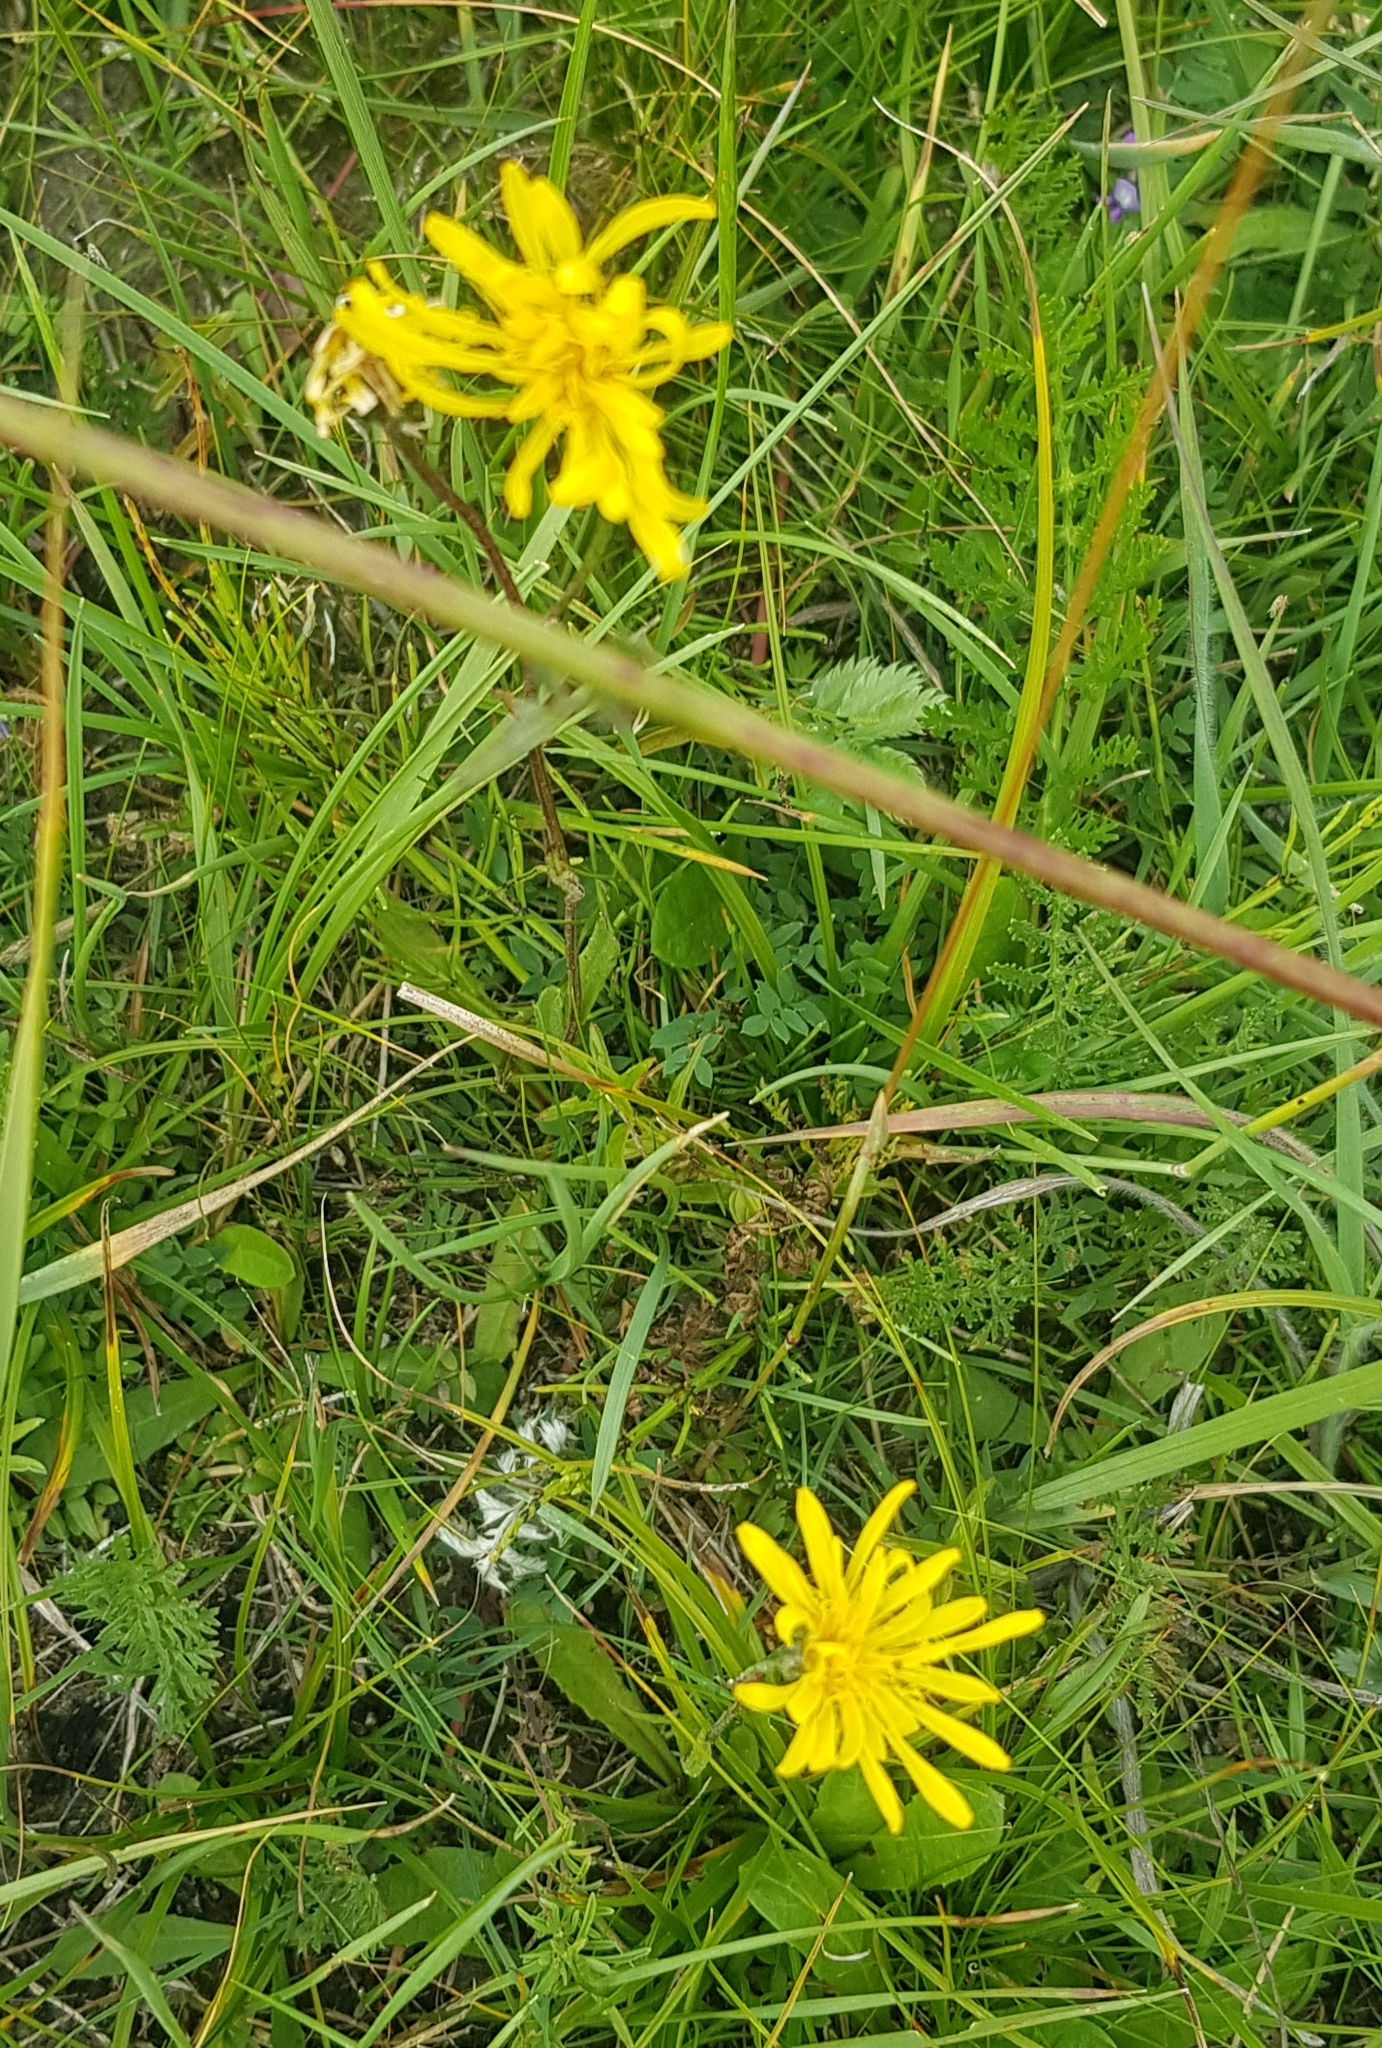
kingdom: Plantae
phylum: Tracheophyta
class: Magnoliopsida
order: Asterales
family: Asteraceae
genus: Scorzonera
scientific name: Scorzonera radiata
